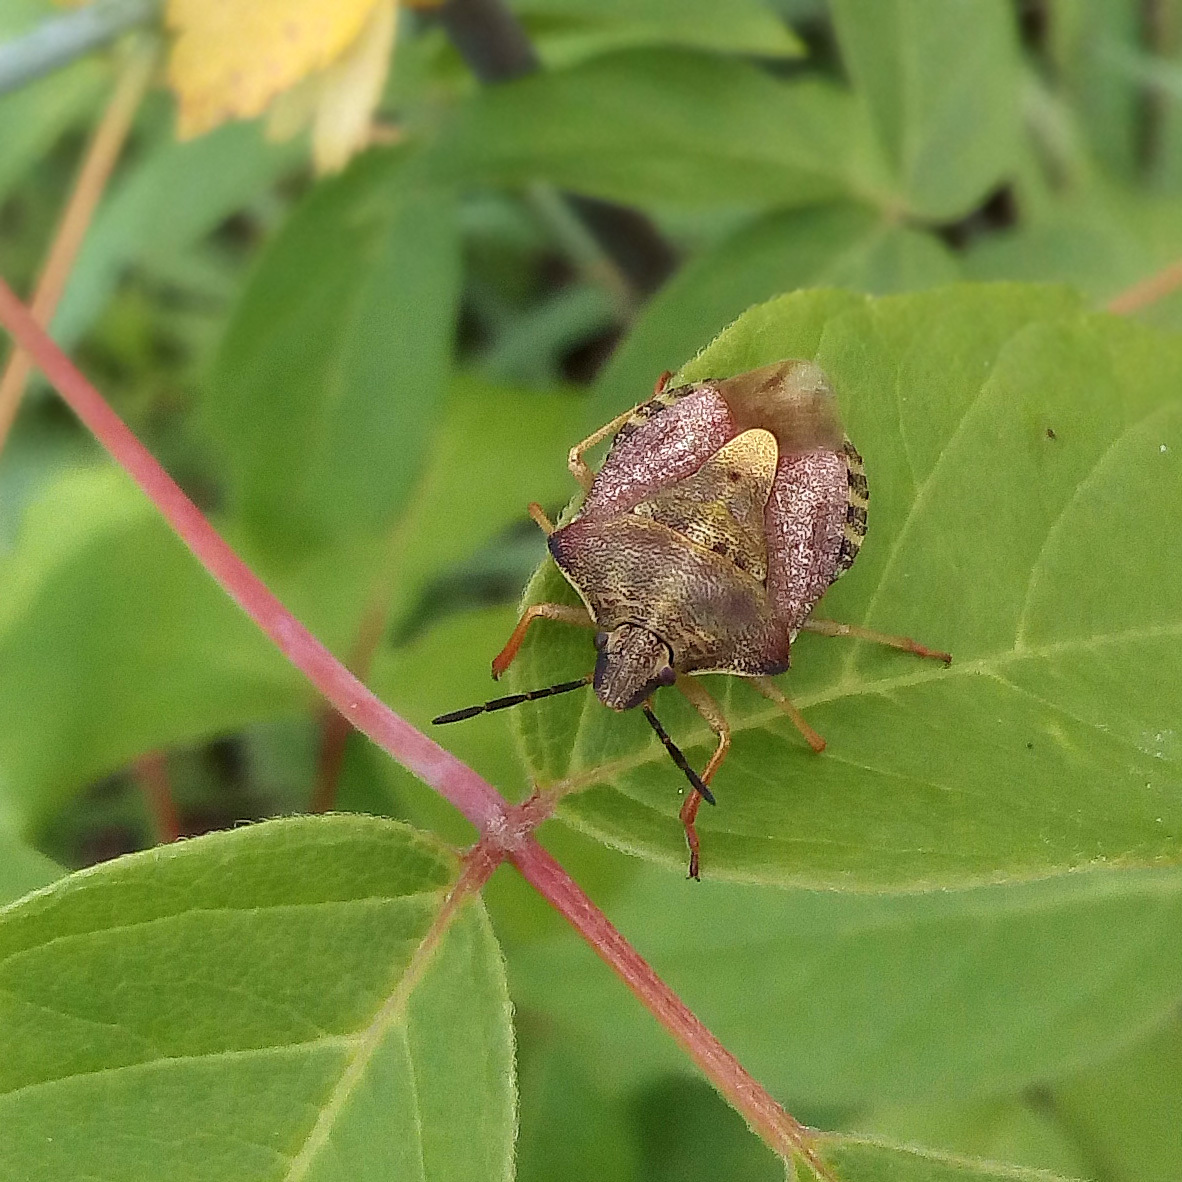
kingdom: Animalia
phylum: Arthropoda
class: Insecta
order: Hemiptera
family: Pentatomidae
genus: Carpocoris
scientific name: Carpocoris purpureipennis
